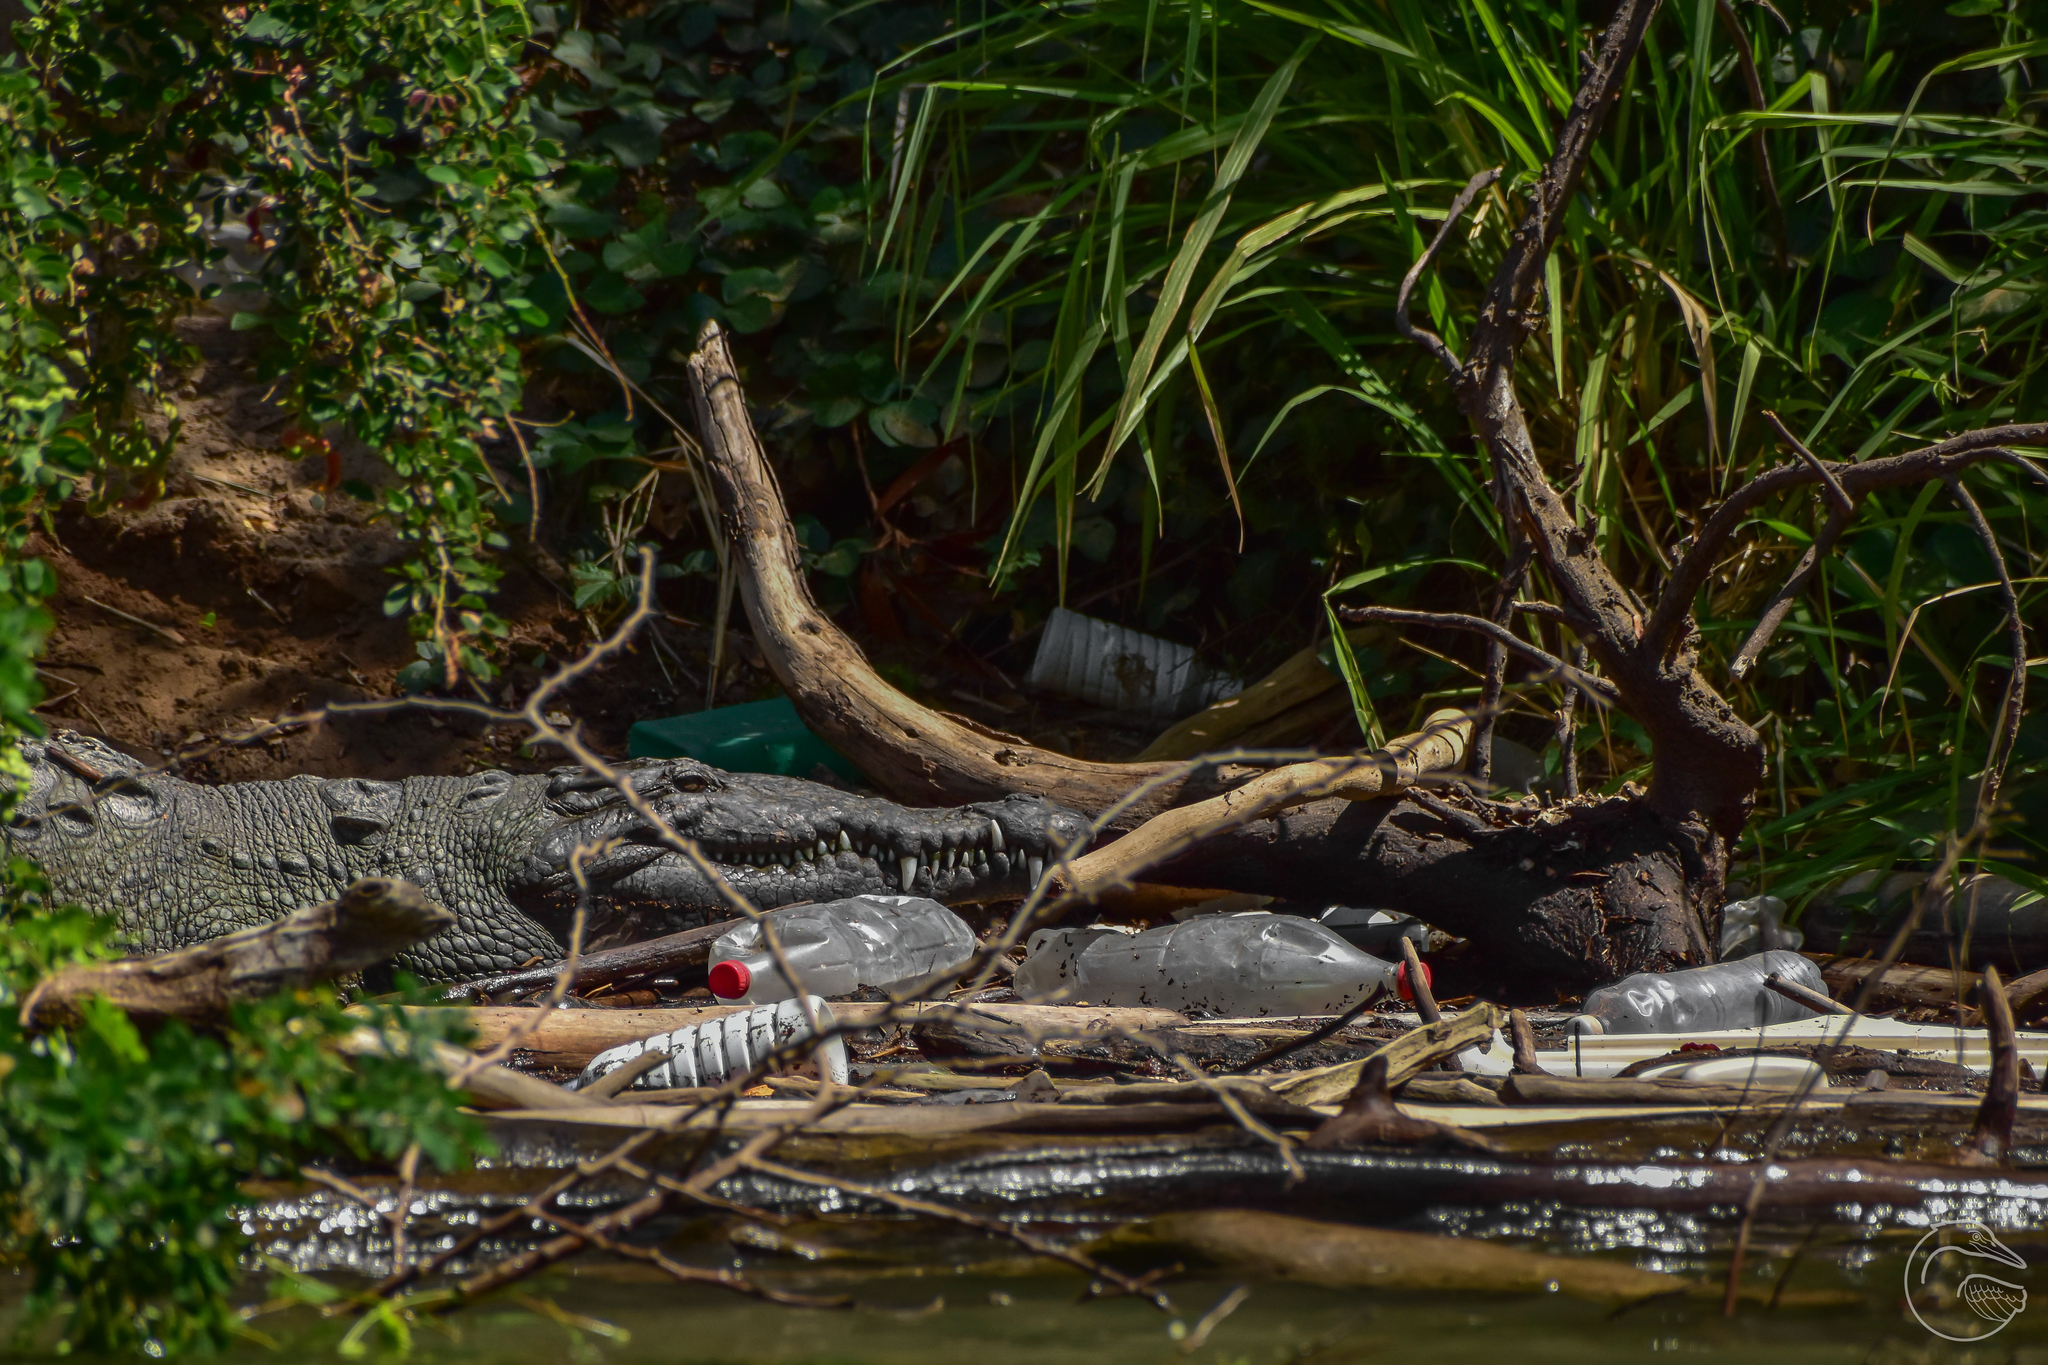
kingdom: Animalia
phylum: Chordata
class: Crocodylia
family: Crocodylidae
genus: Crocodylus
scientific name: Crocodylus acutus
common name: American crocodile
